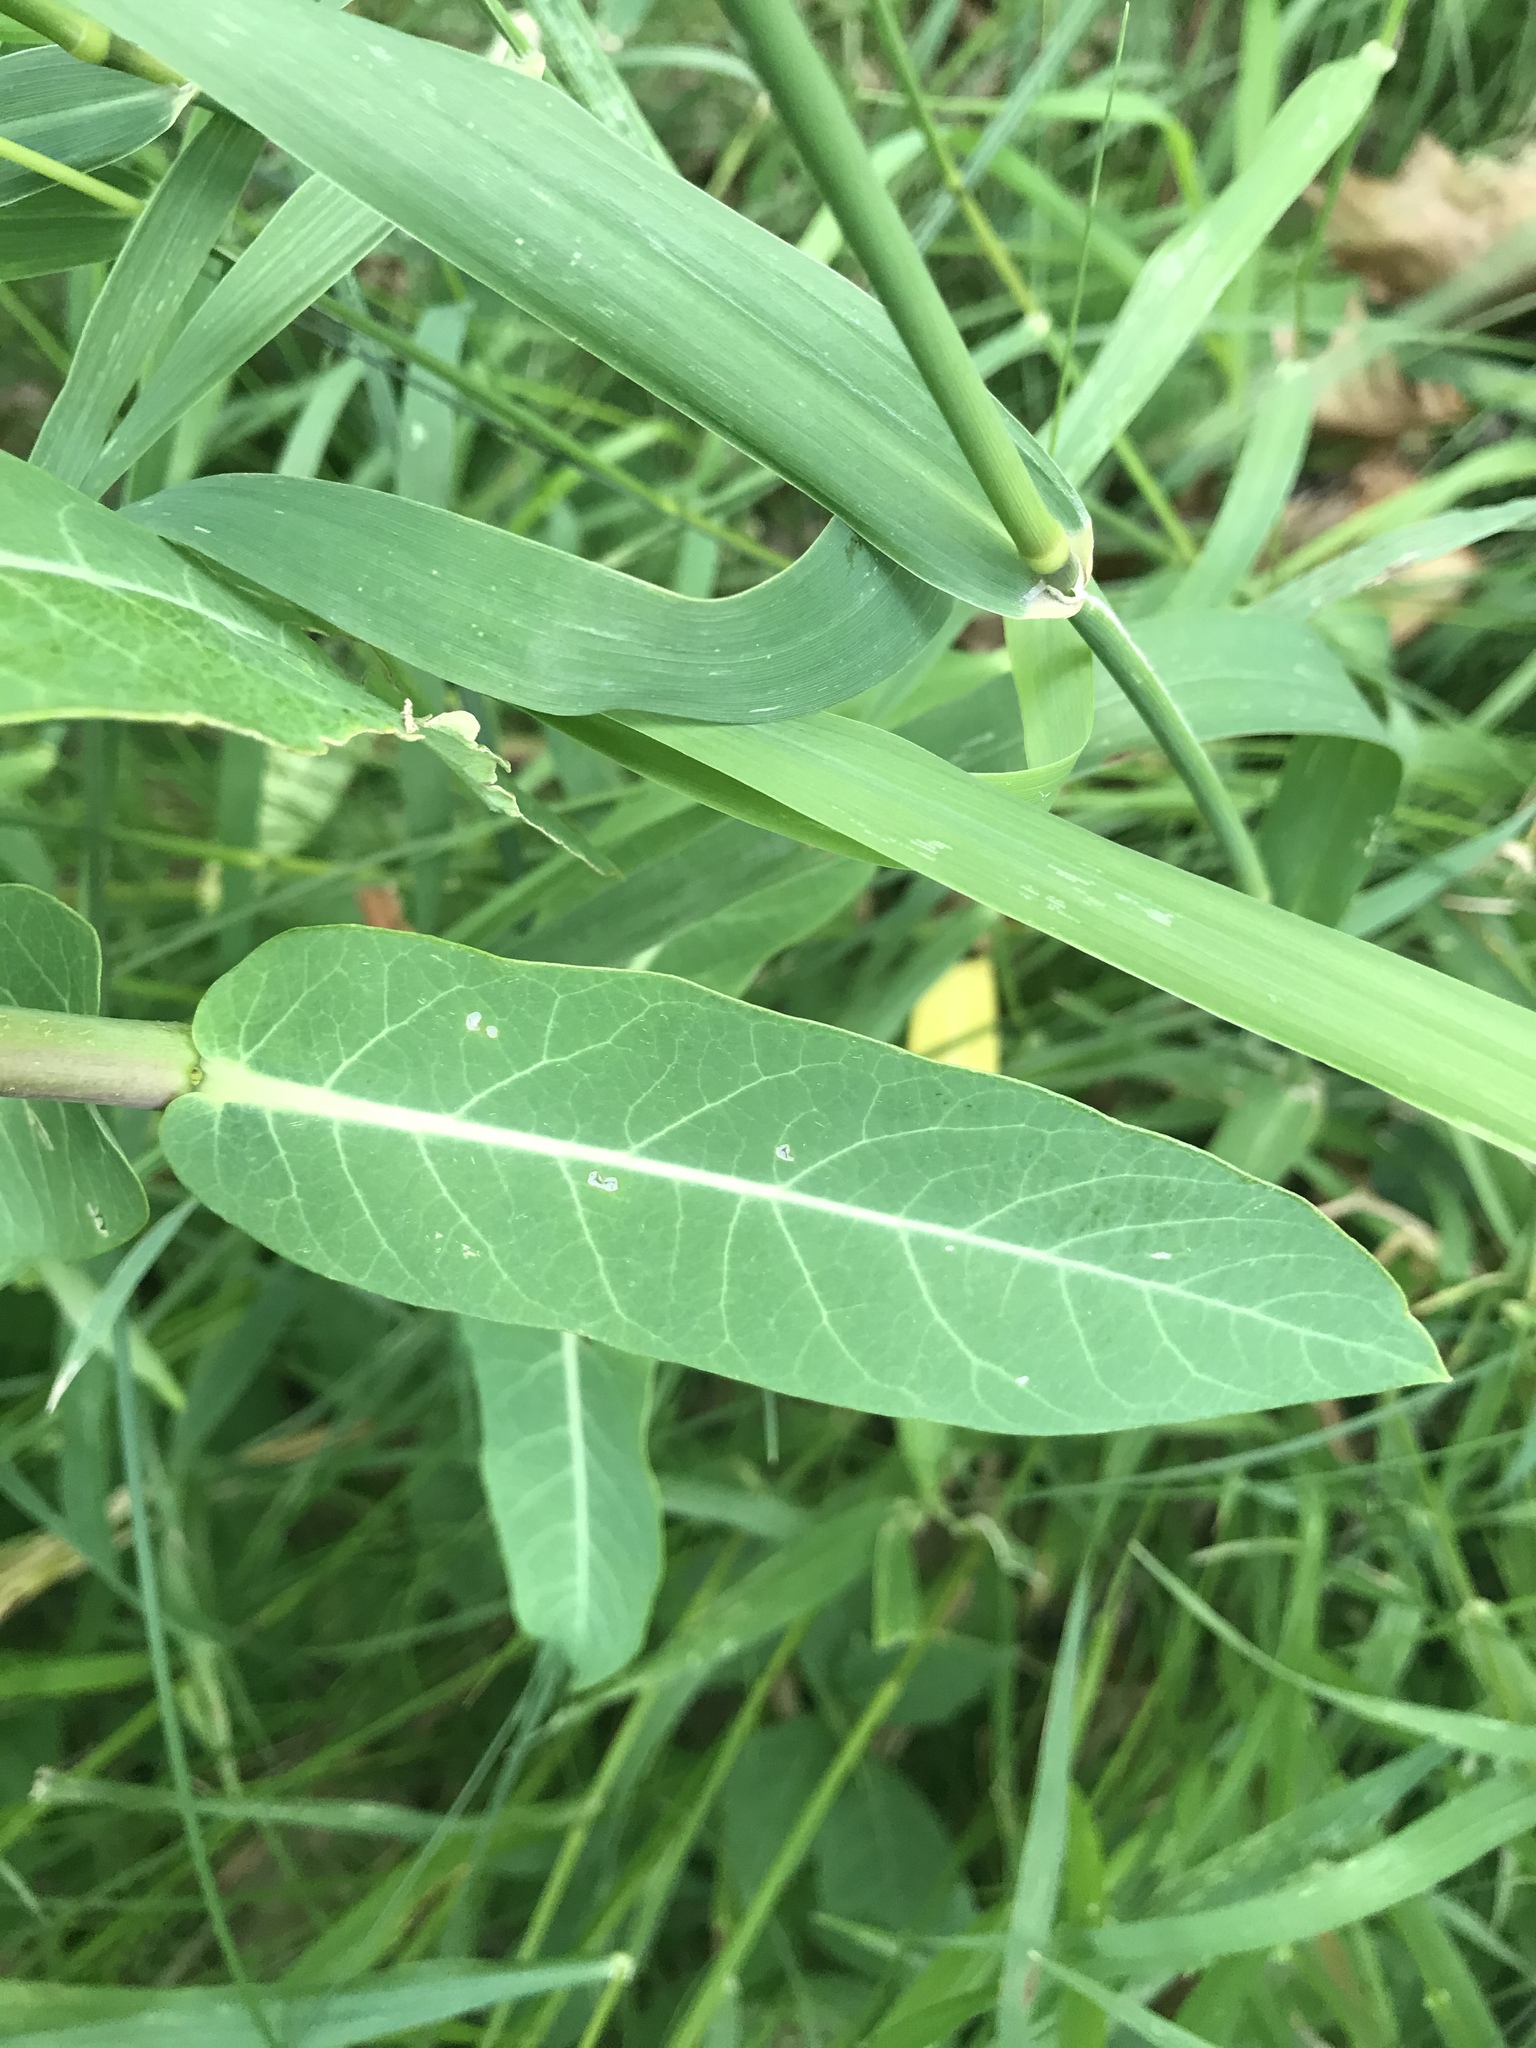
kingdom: Plantae
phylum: Tracheophyta
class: Magnoliopsida
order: Gentianales
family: Apocynaceae
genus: Apocynum
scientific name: Apocynum cannabinum
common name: Hemp dogbane
